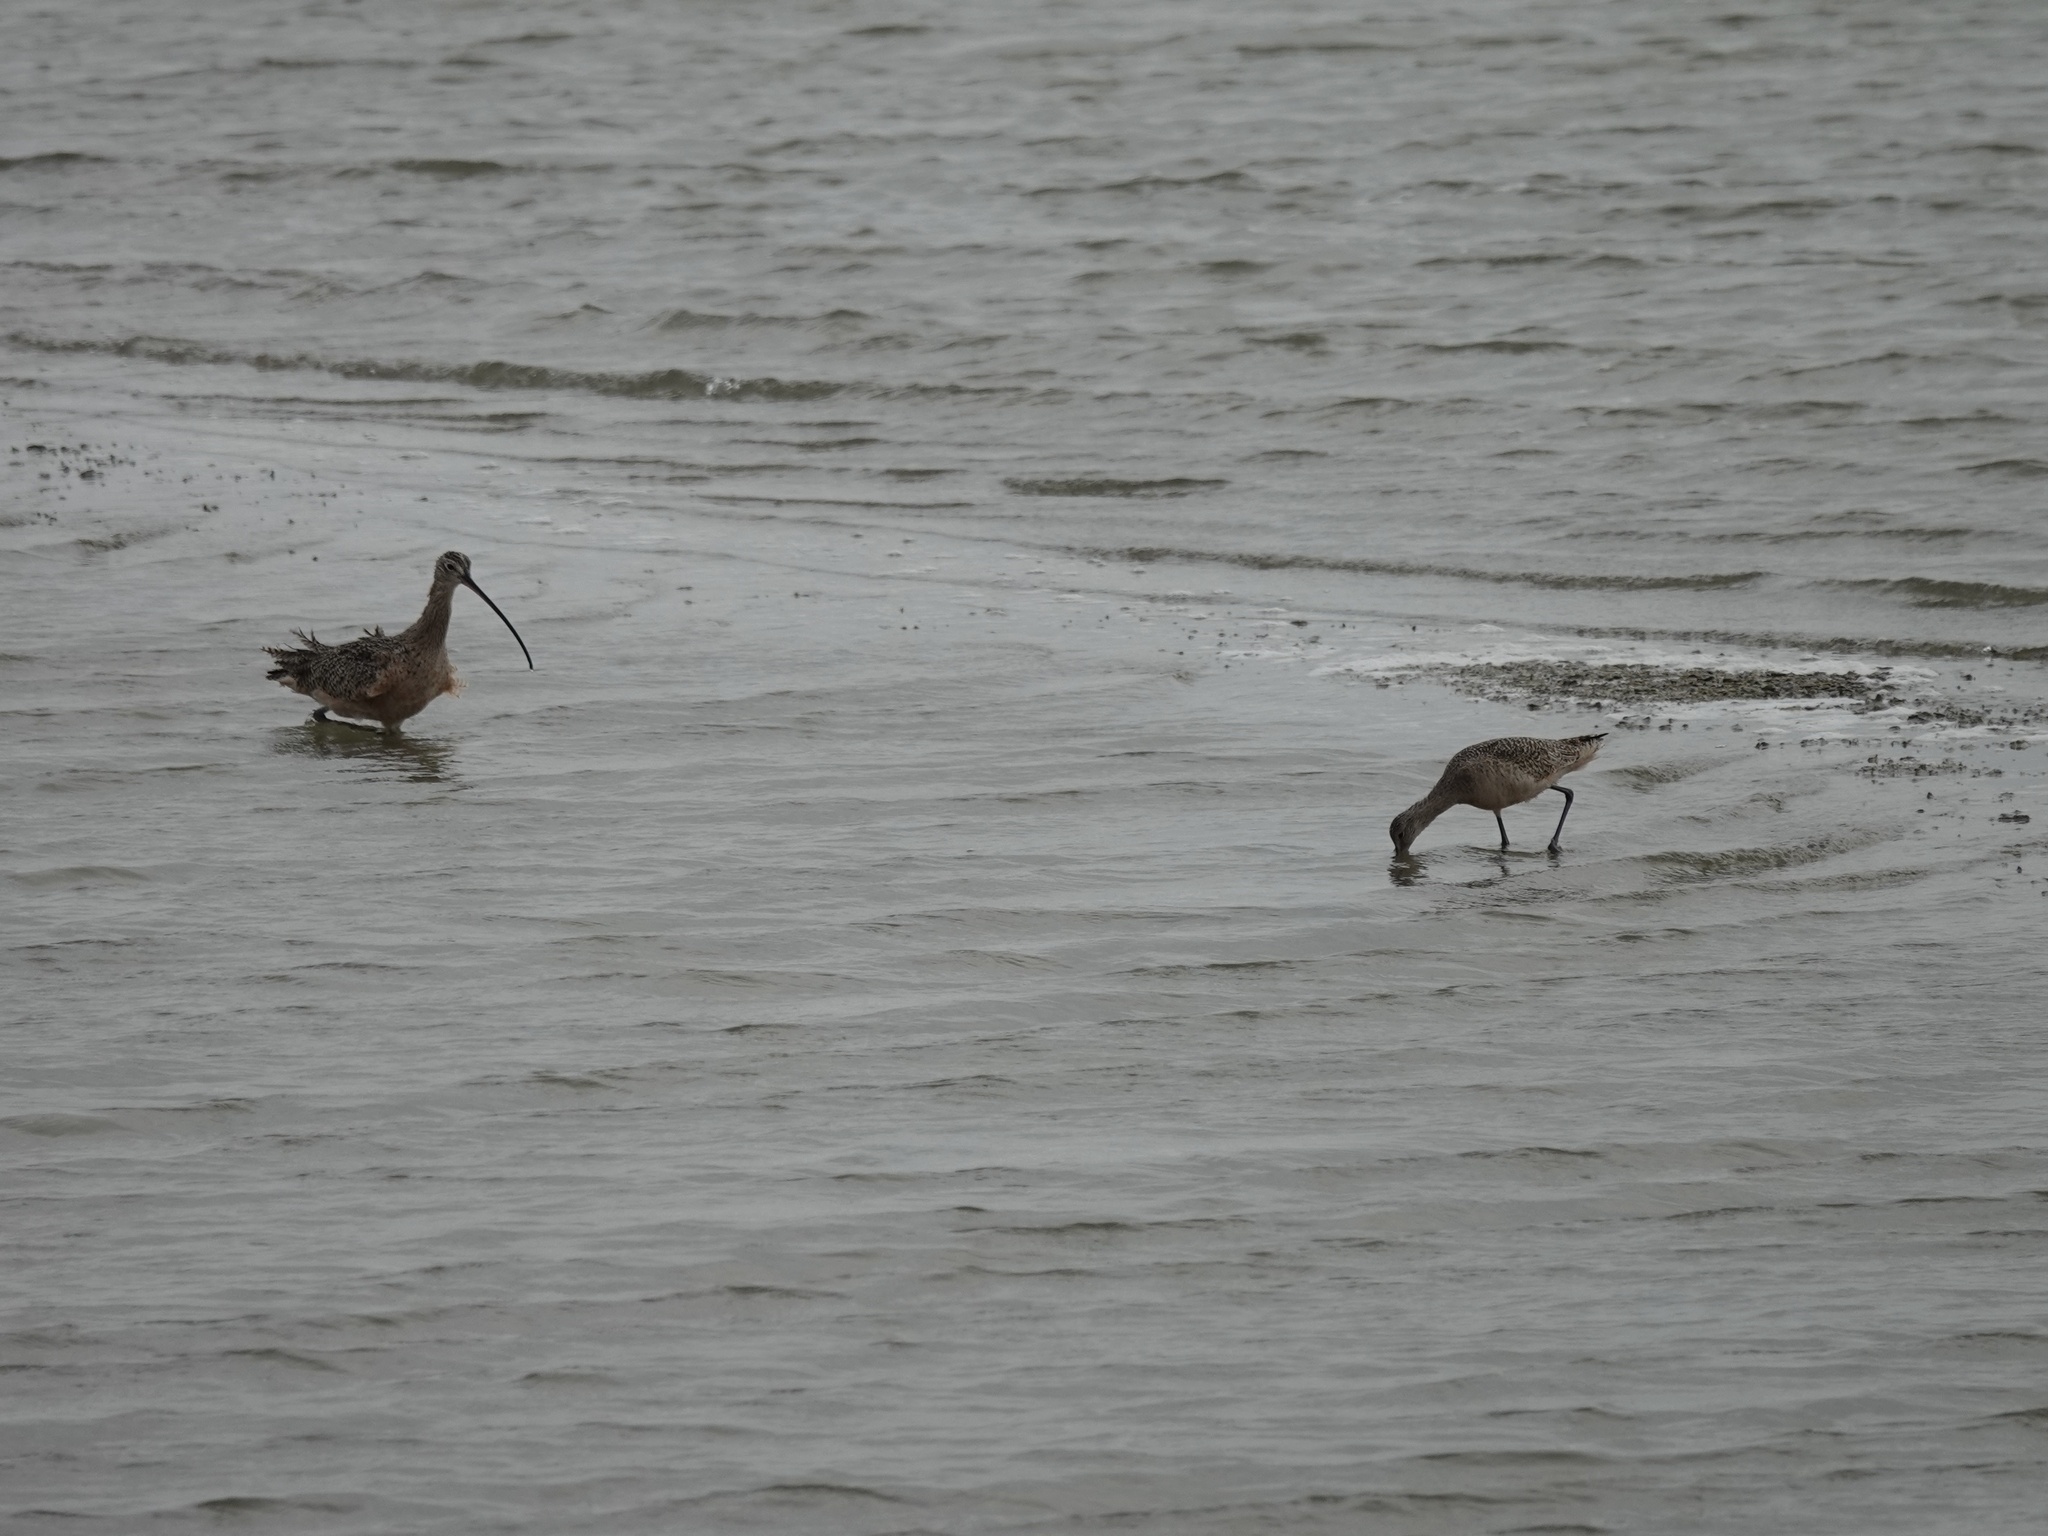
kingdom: Animalia
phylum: Chordata
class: Aves
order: Charadriiformes
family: Scolopacidae
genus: Numenius
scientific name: Numenius americanus
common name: Long-billed curlew
